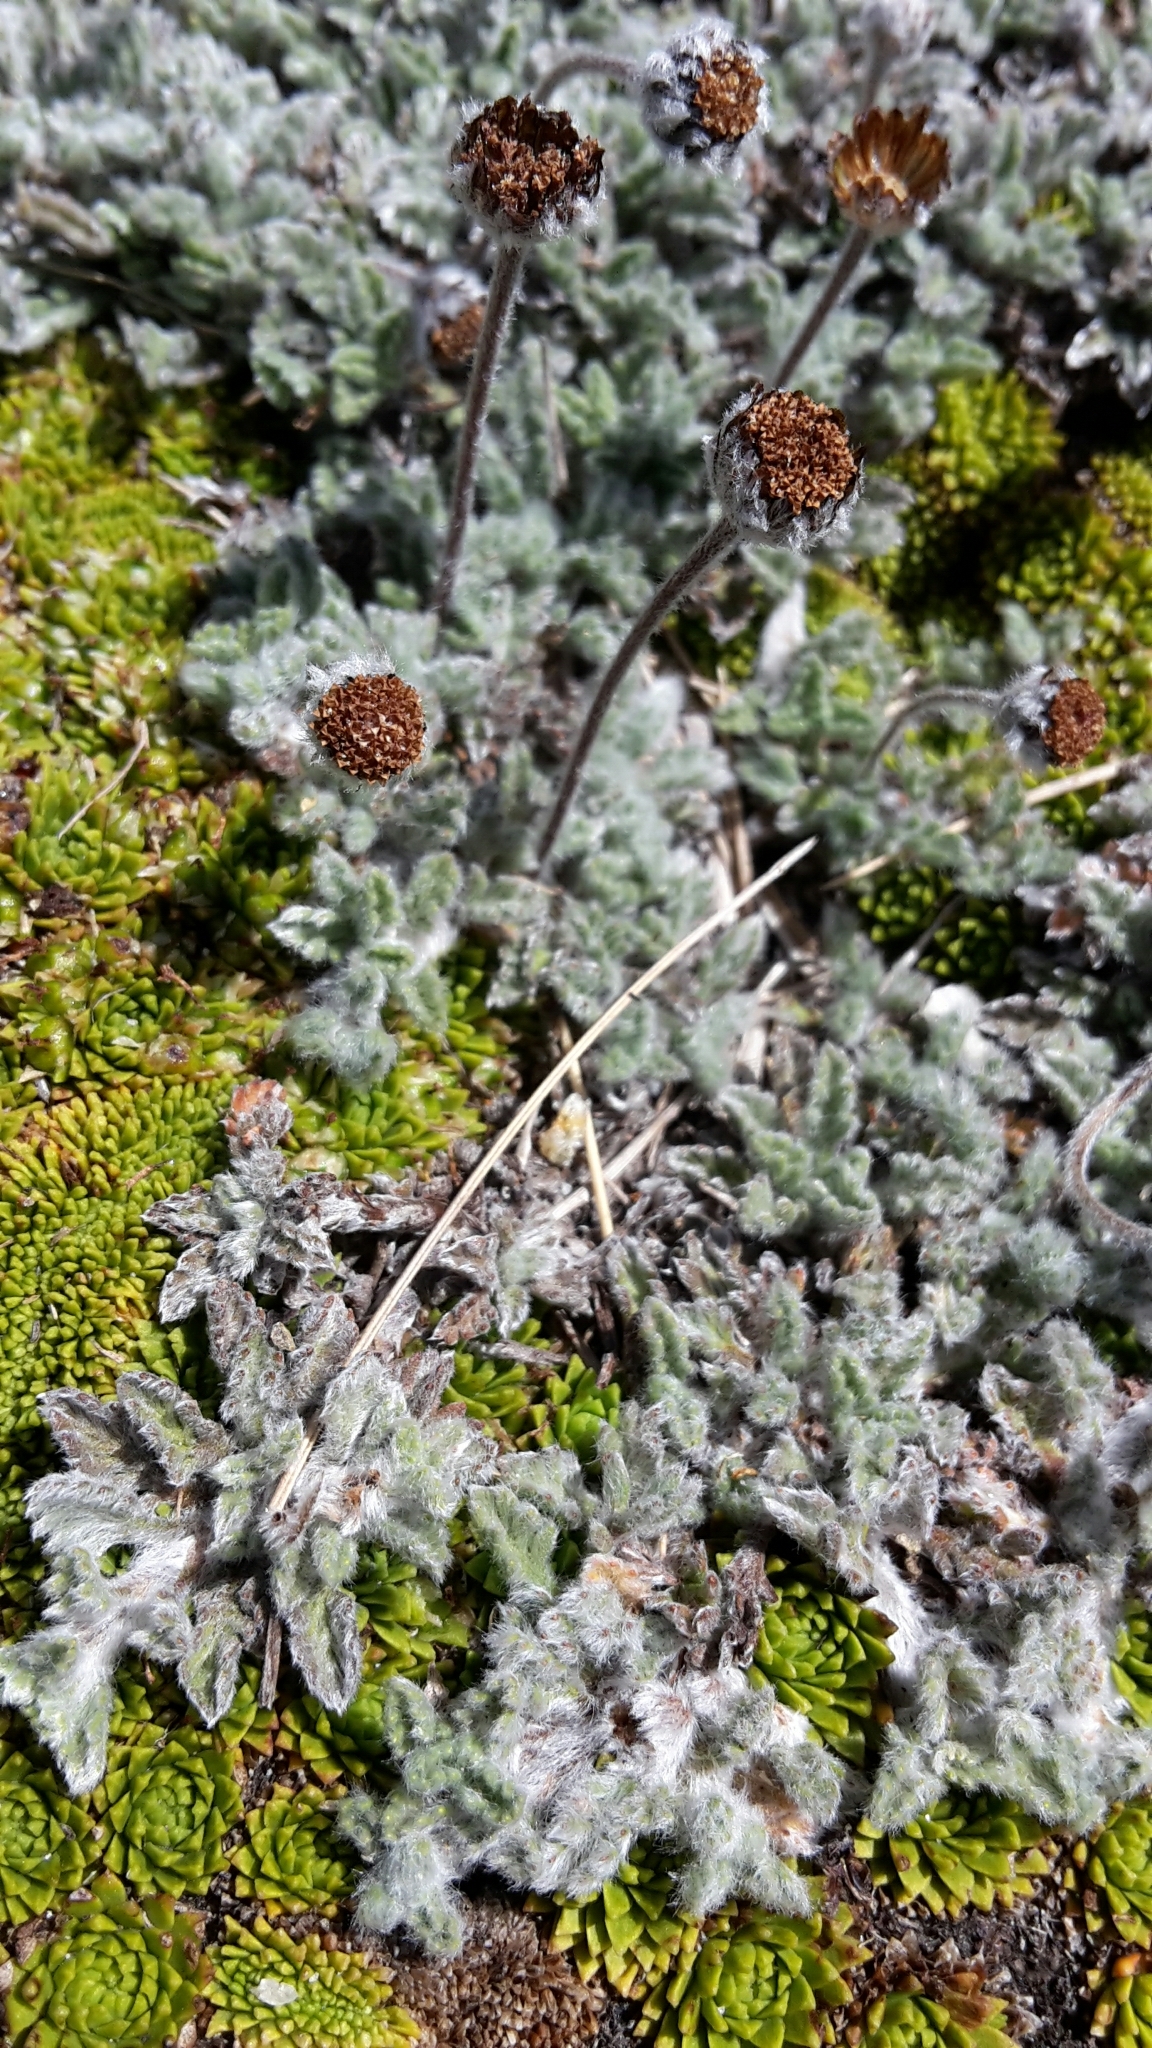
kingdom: Plantae
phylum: Tracheophyta
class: Magnoliopsida
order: Asterales
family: Asteraceae
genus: Leptinella
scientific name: Leptinella albida
